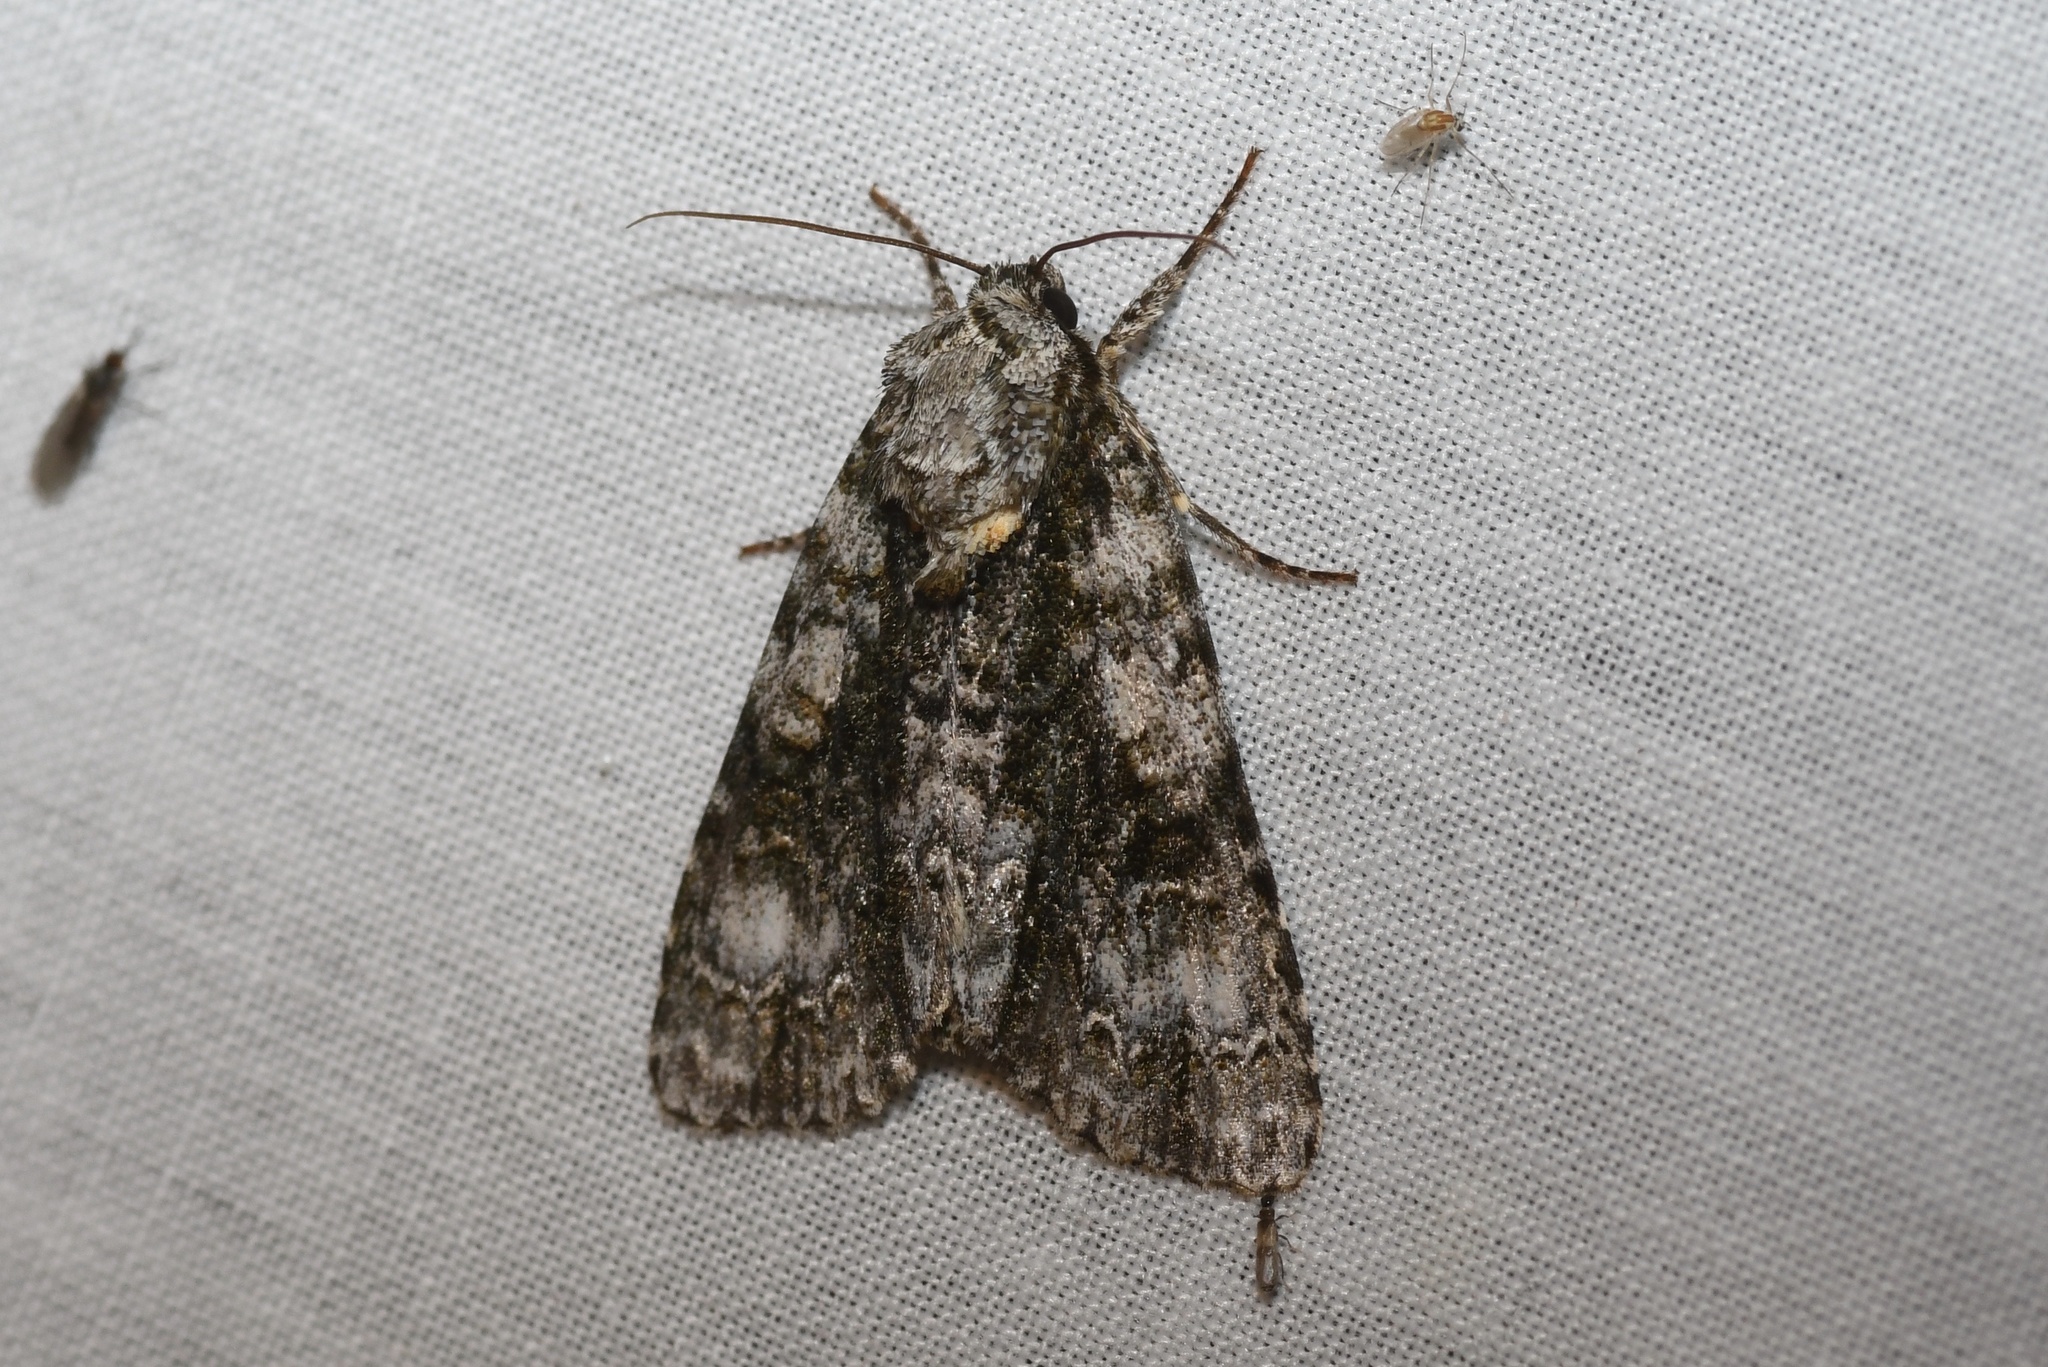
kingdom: Animalia
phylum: Arthropoda
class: Insecta
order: Lepidoptera
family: Noctuidae
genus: Acronicta
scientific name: Acronicta superans
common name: Splendid dagger
